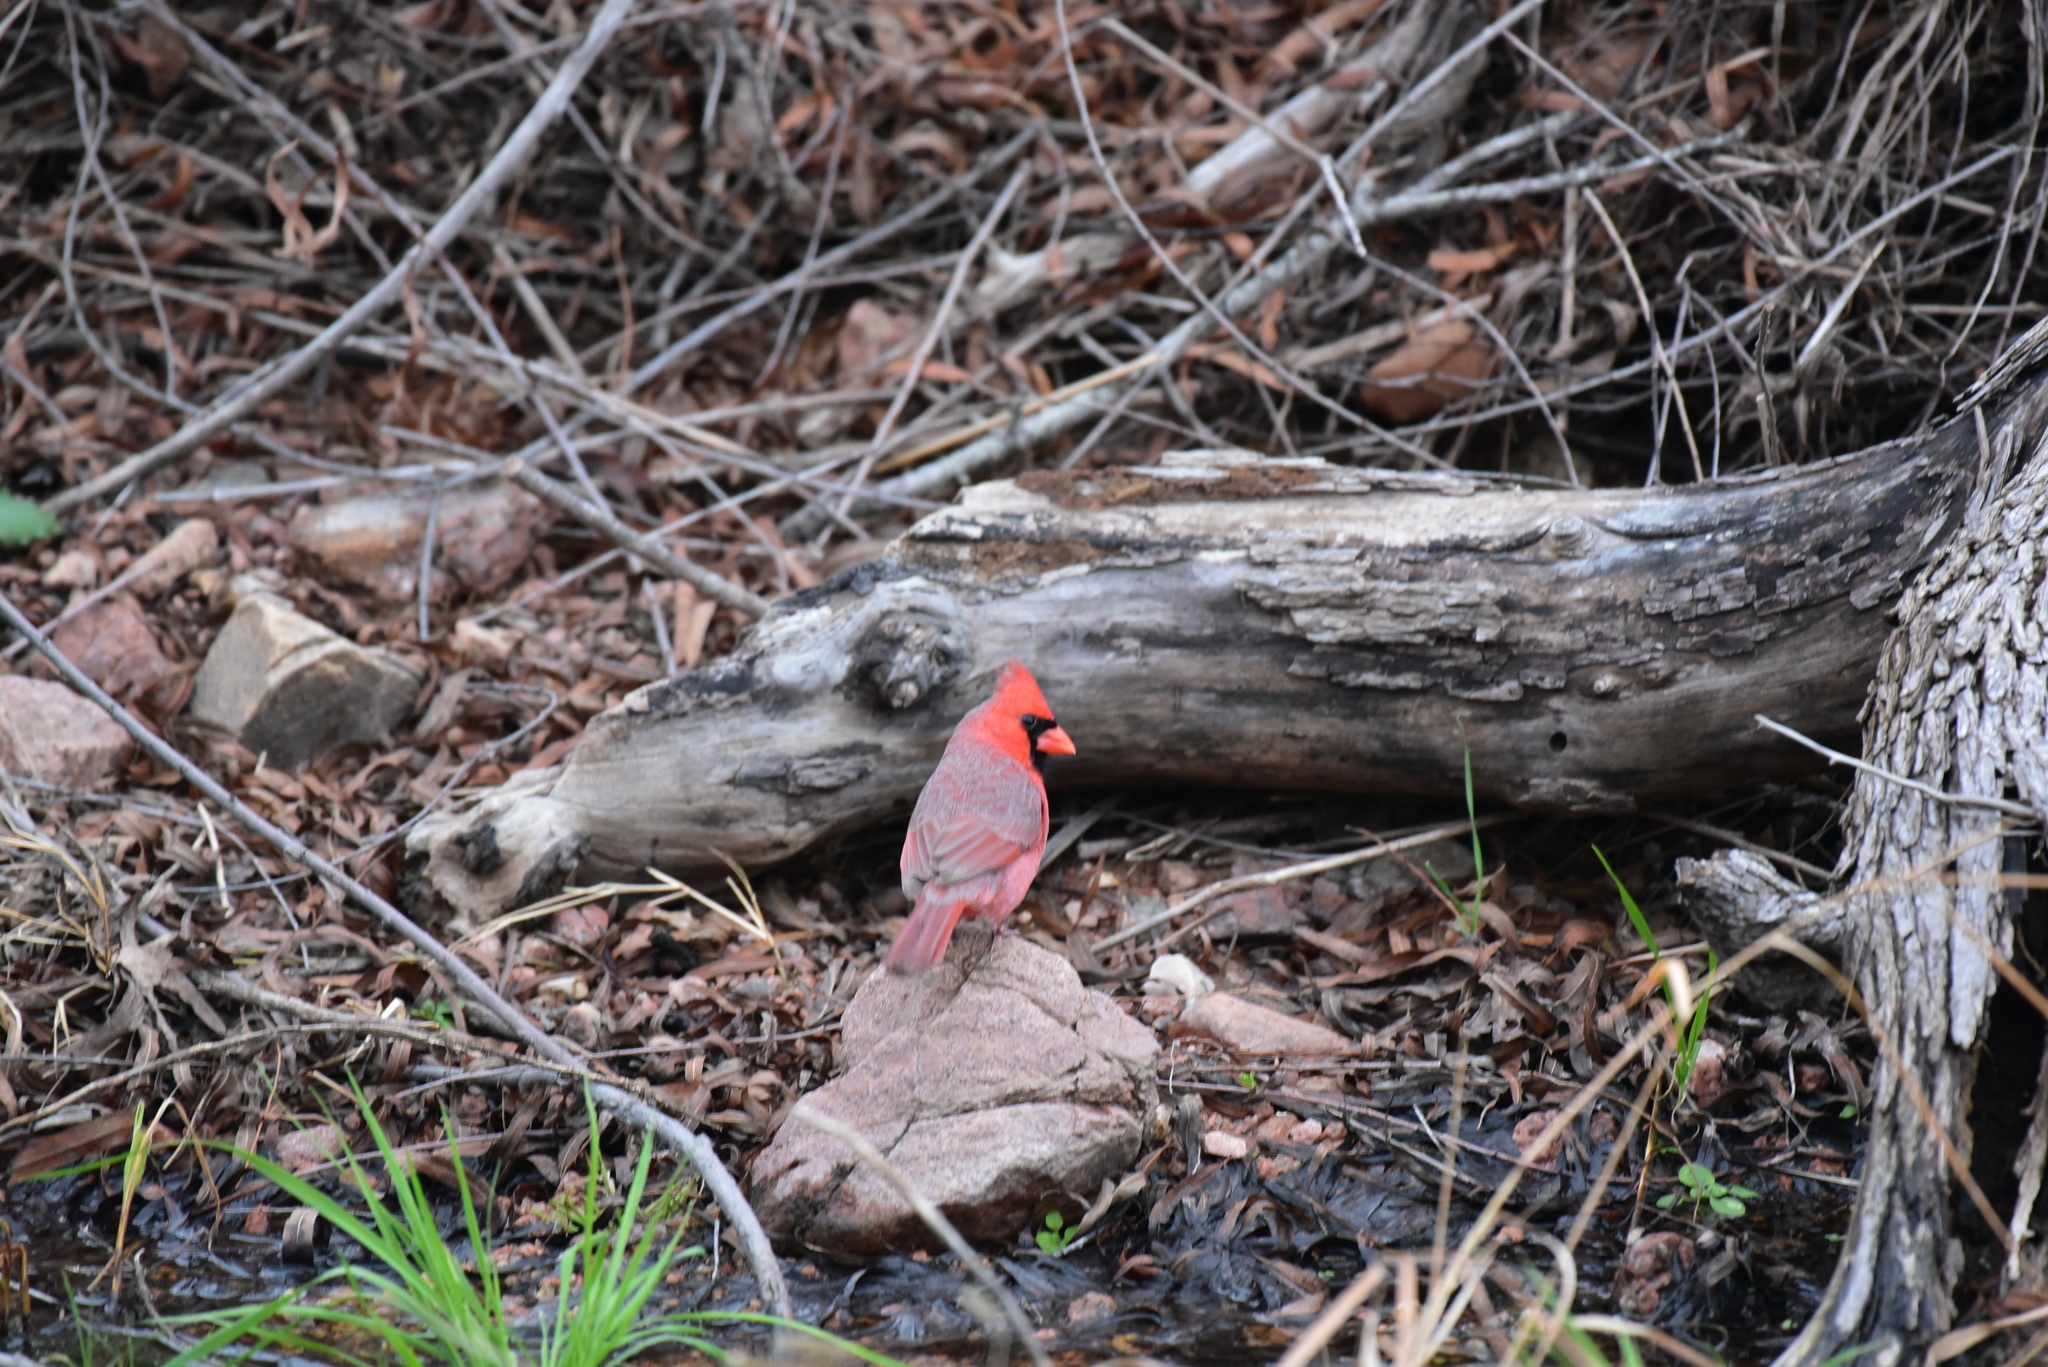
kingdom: Animalia
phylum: Chordata
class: Aves
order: Passeriformes
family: Cardinalidae
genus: Cardinalis
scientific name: Cardinalis cardinalis
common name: Northern cardinal
